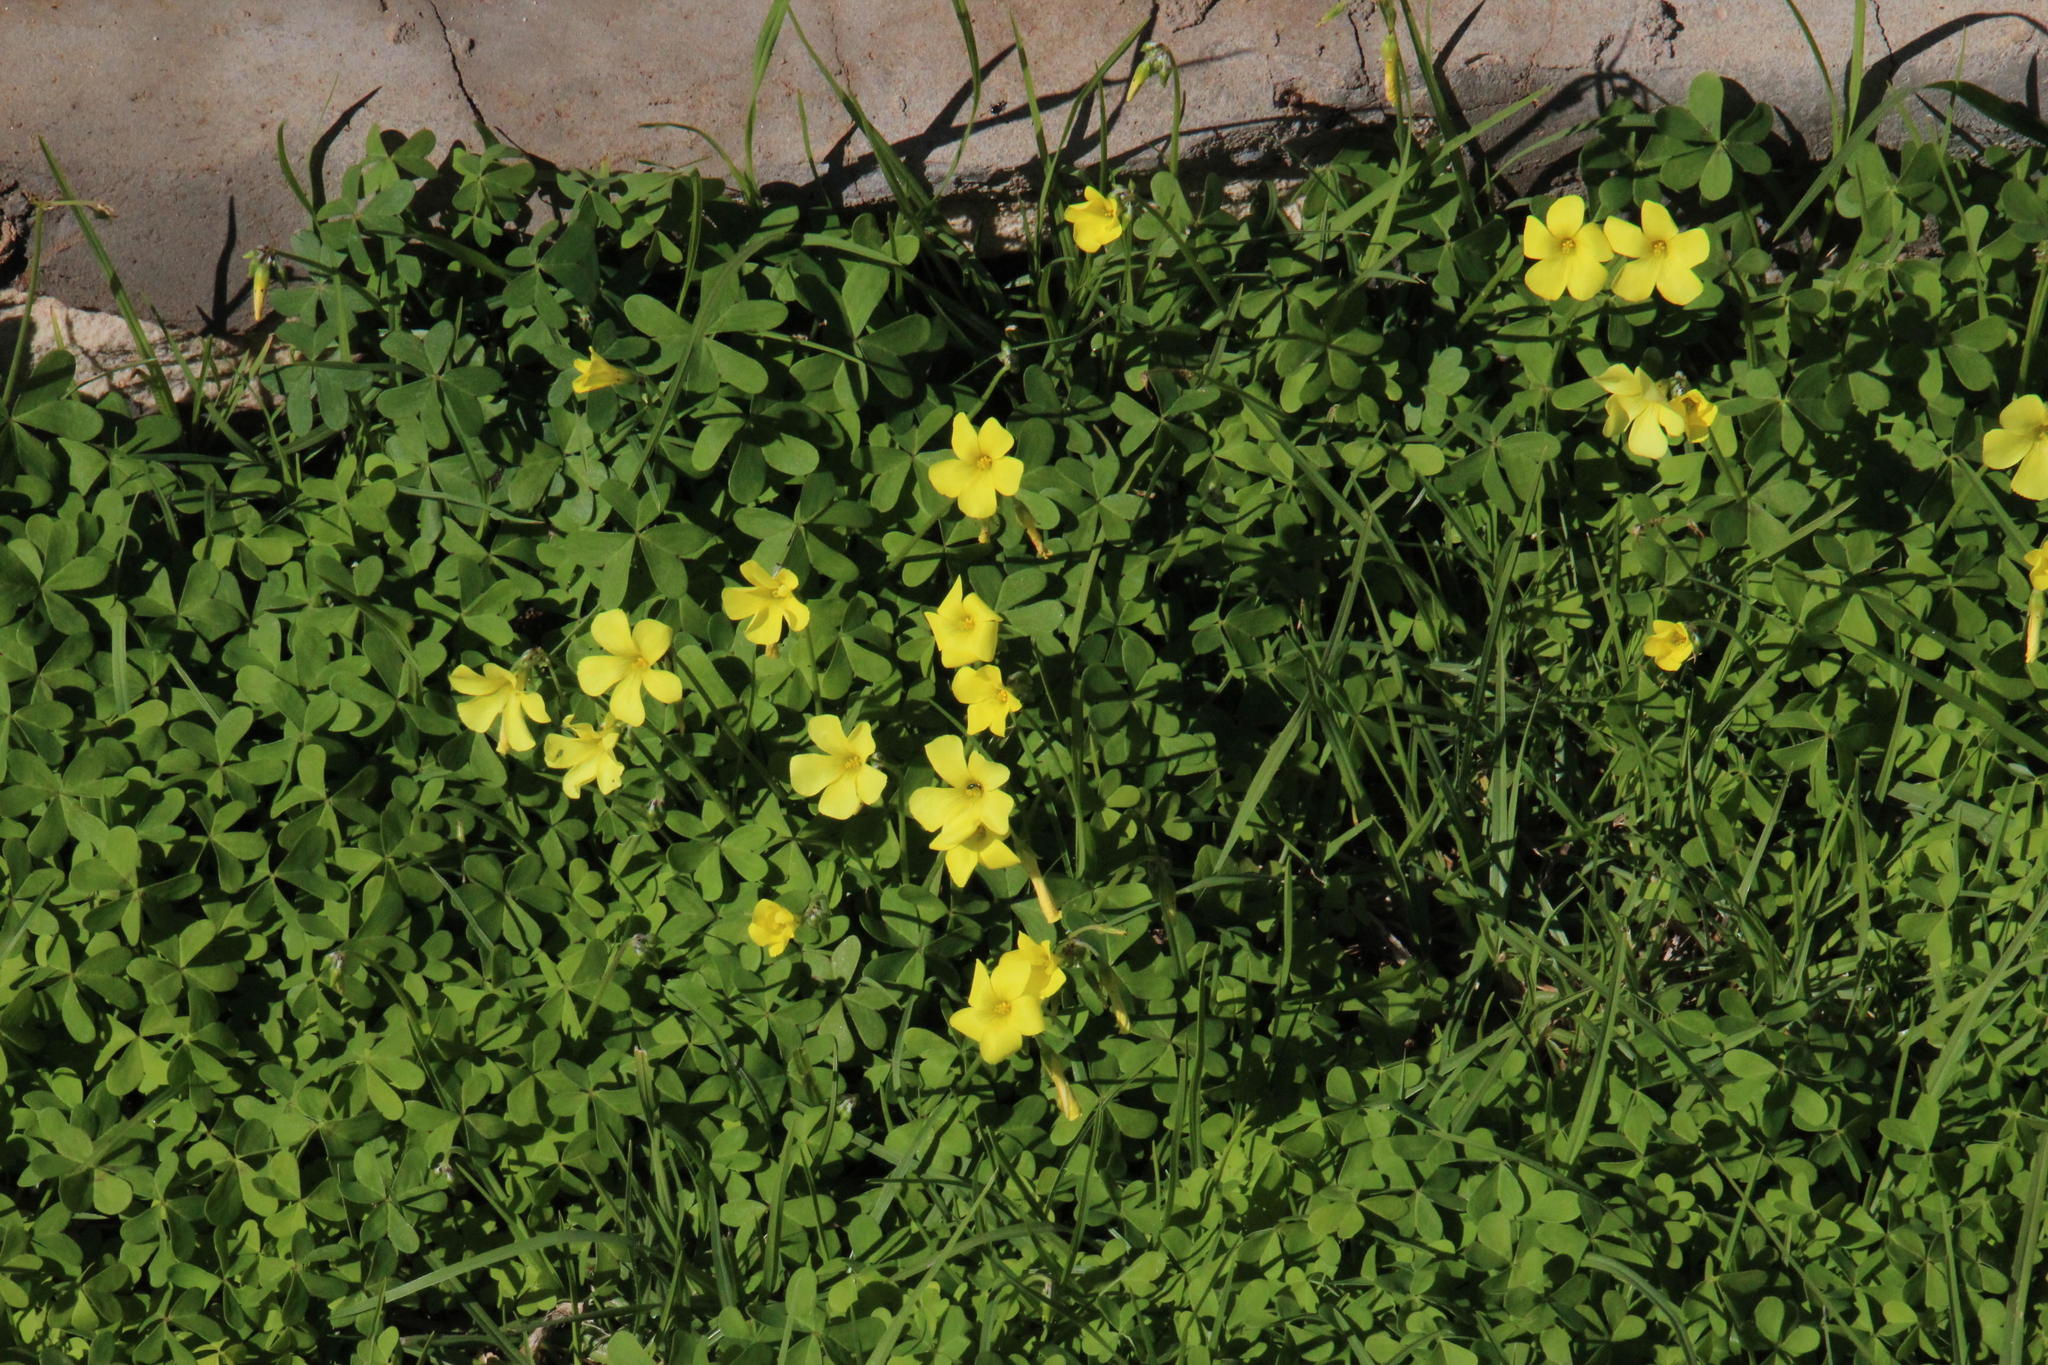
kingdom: Plantae
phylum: Tracheophyta
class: Magnoliopsida
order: Oxalidales
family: Oxalidaceae
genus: Oxalis
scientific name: Oxalis pes-caprae
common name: Bermuda-buttercup
